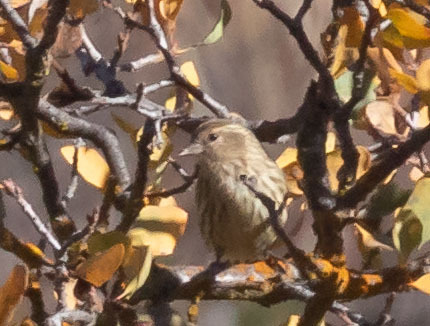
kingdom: Animalia
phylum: Chordata
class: Aves
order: Passeriformes
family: Fringillidae
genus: Spinus
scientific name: Spinus pinus
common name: Pine siskin
